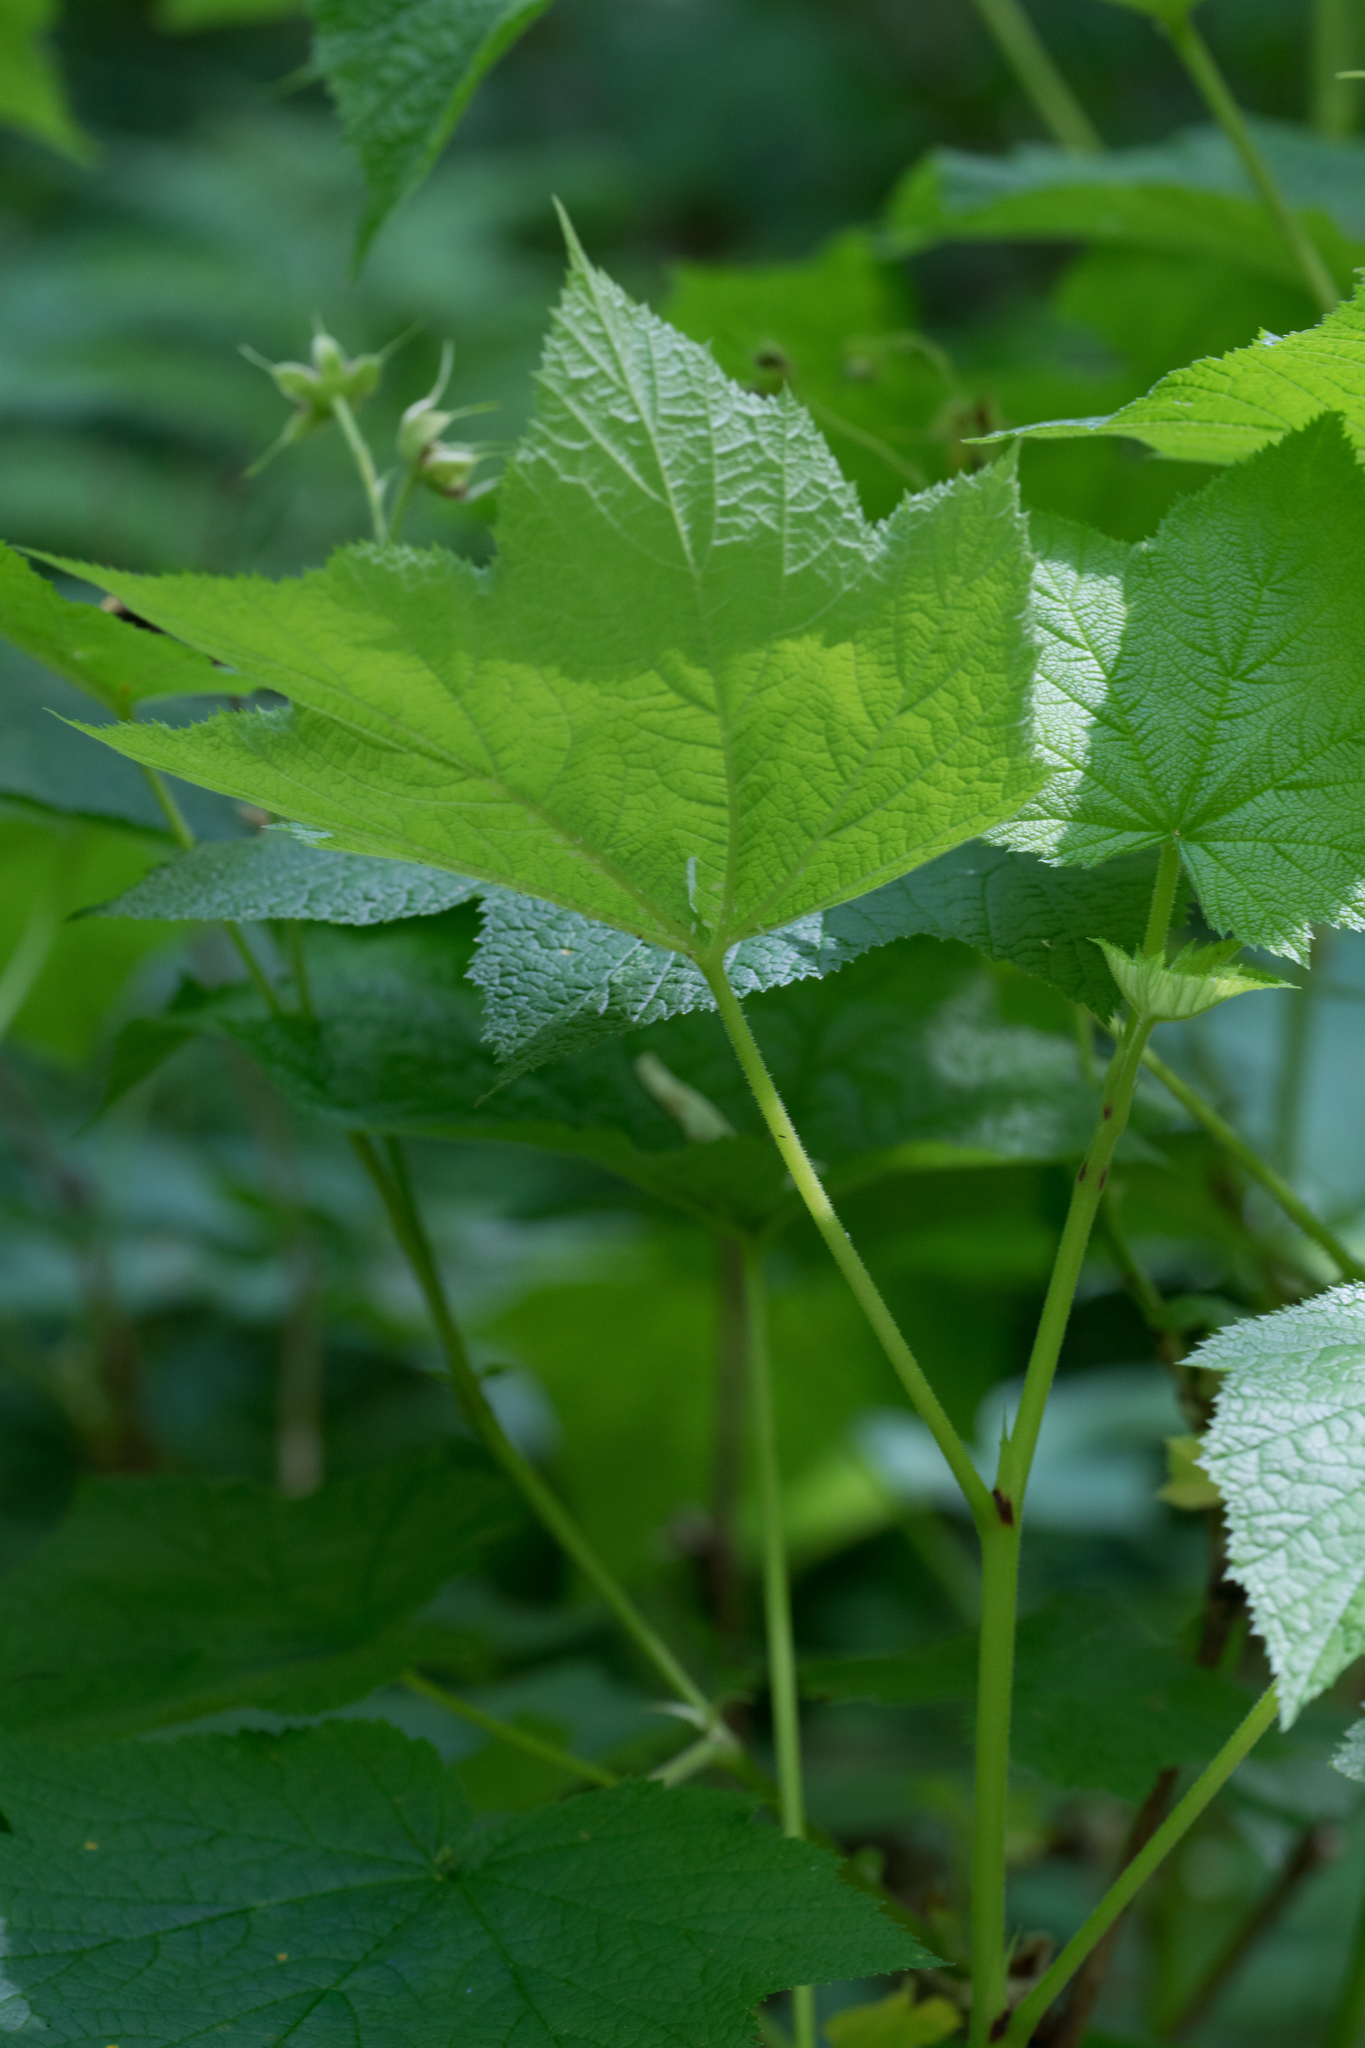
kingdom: Plantae
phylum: Tracheophyta
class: Magnoliopsida
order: Rosales
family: Rosaceae
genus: Rubus
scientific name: Rubus parviflorus
